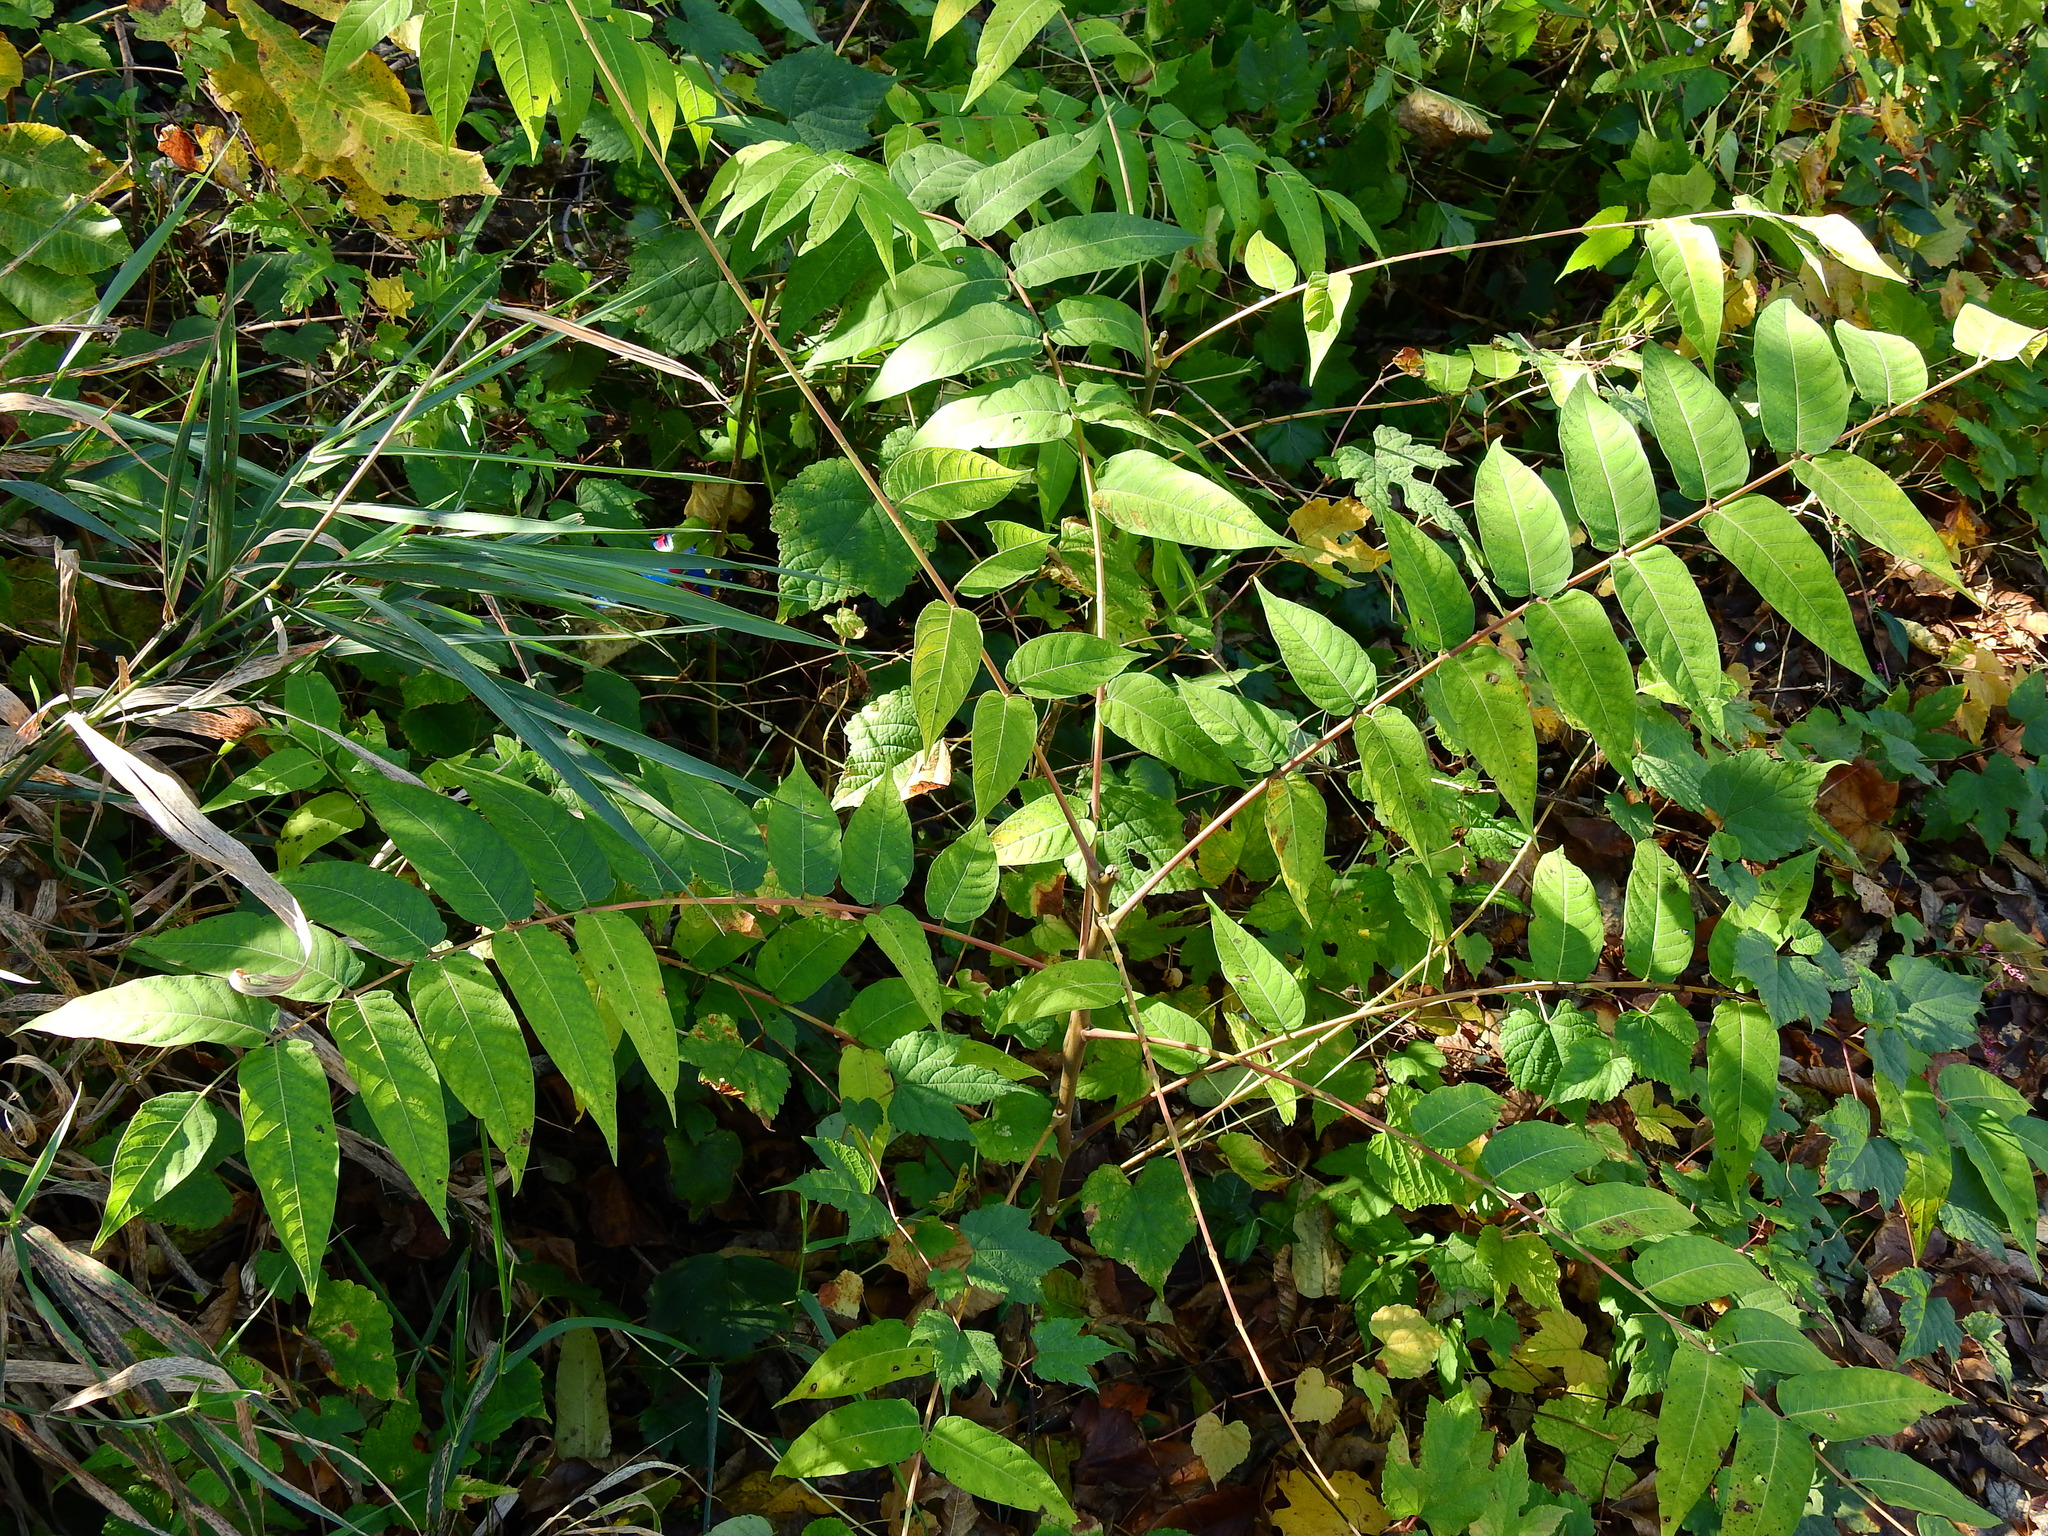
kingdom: Plantae
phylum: Tracheophyta
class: Magnoliopsida
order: Sapindales
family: Simaroubaceae
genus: Ailanthus
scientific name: Ailanthus altissima
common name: Tree-of-heaven
